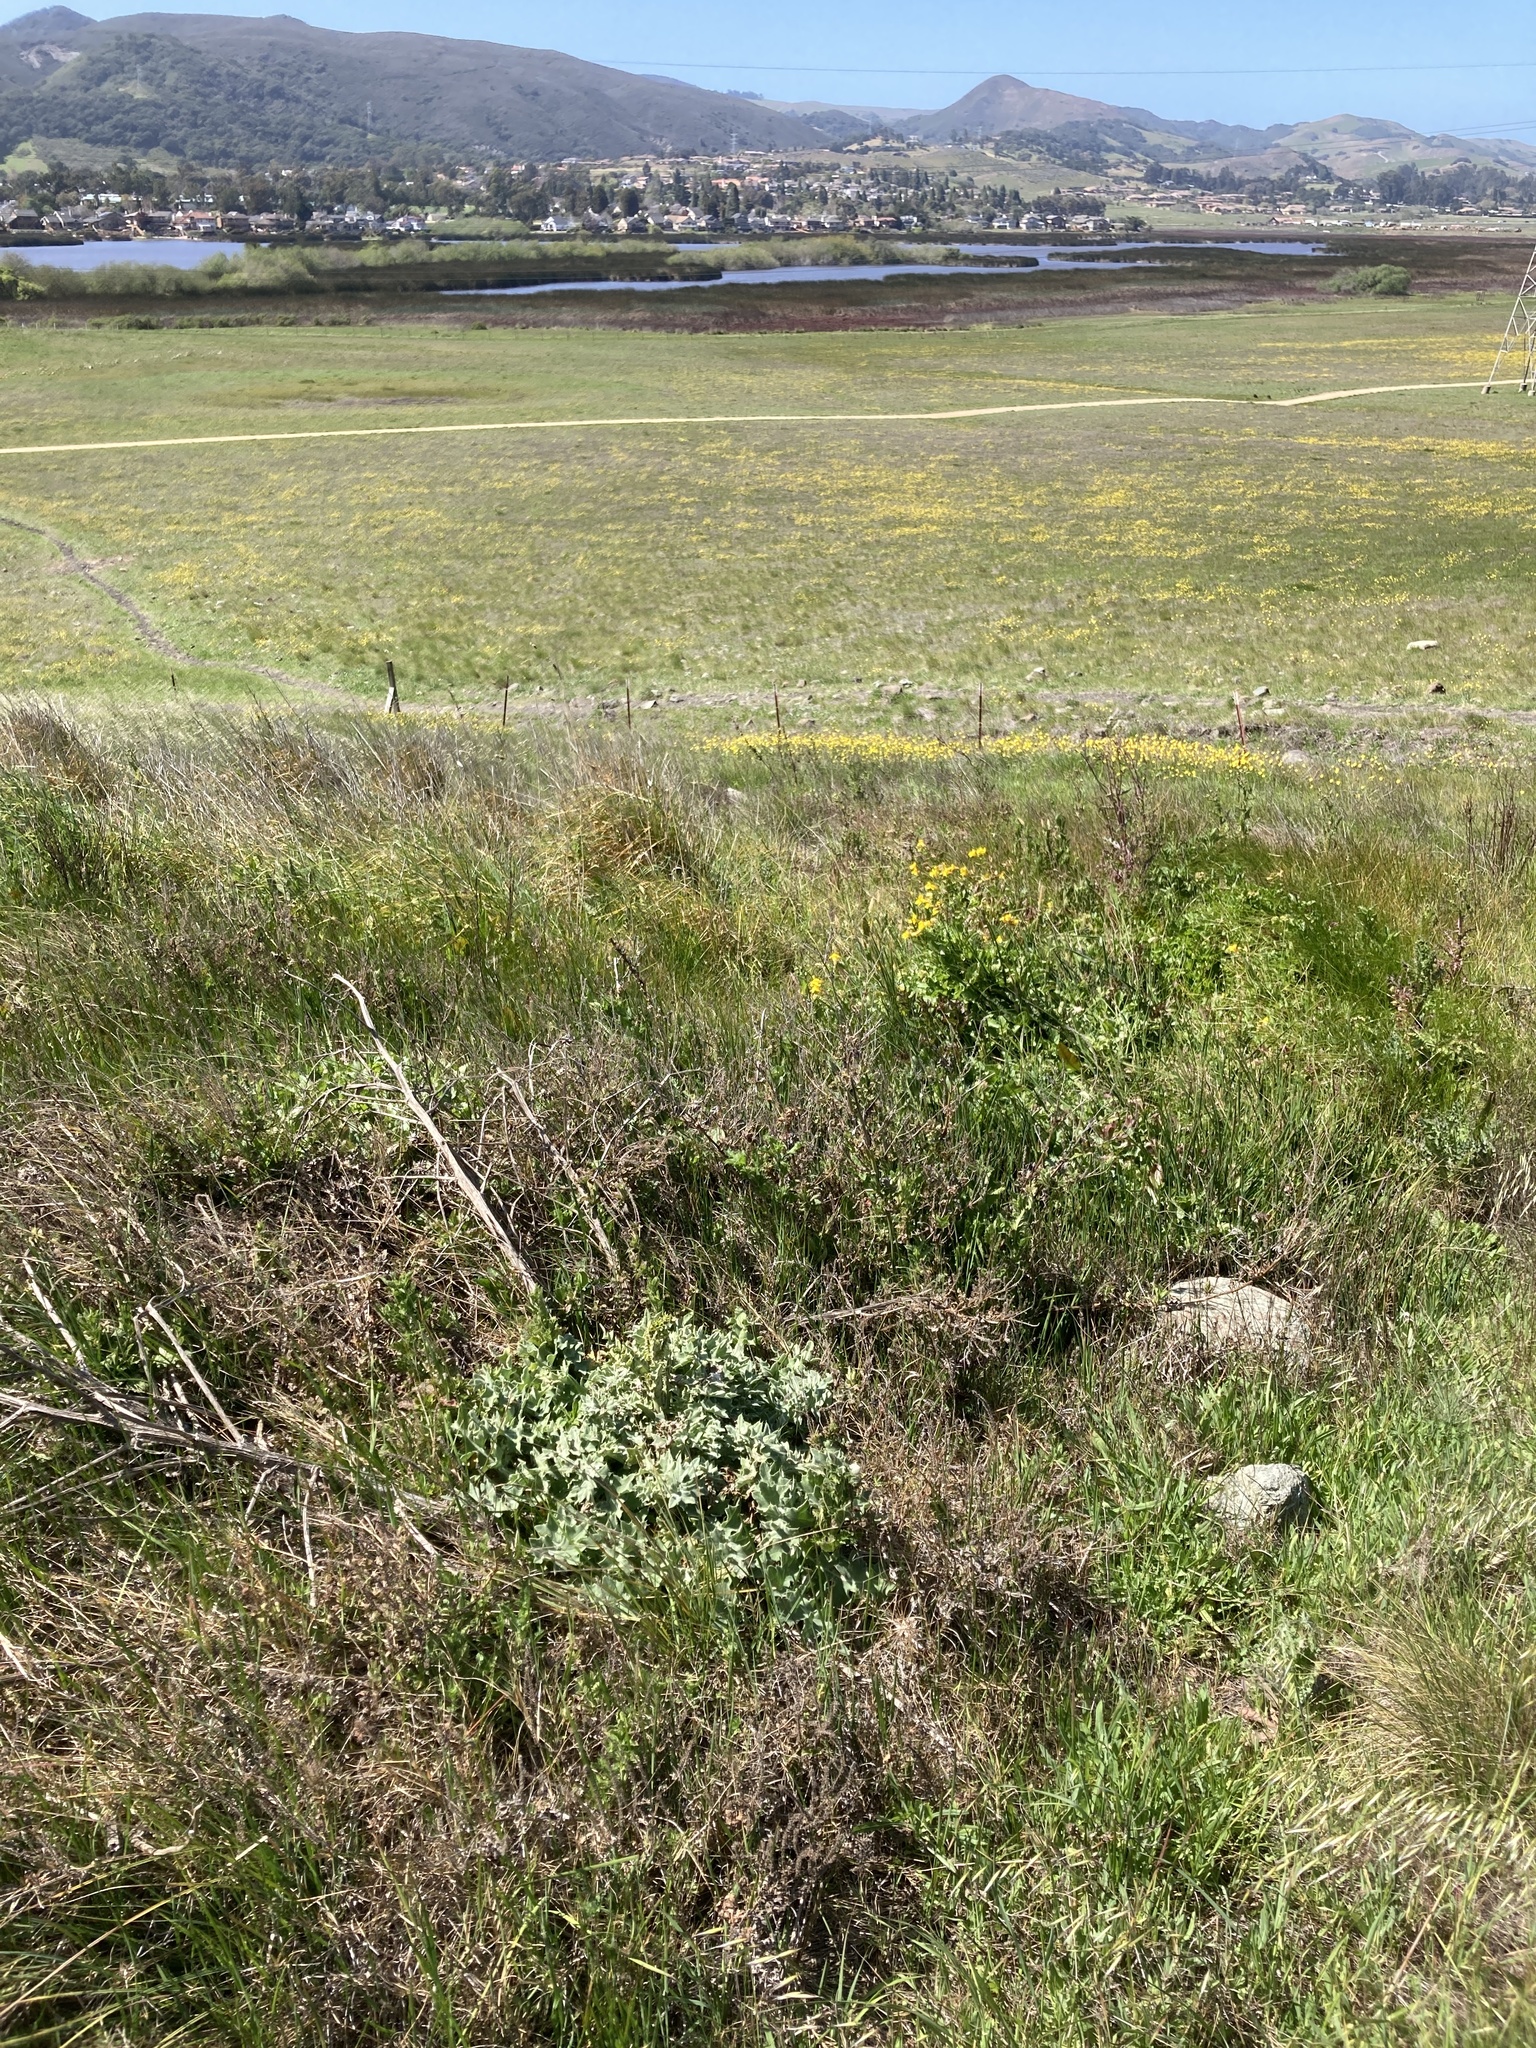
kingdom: Plantae
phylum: Tracheophyta
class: Magnoliopsida
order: Asterales
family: Asteraceae
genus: Cirsium
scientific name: Cirsium fontinale
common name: Fountain thistle
